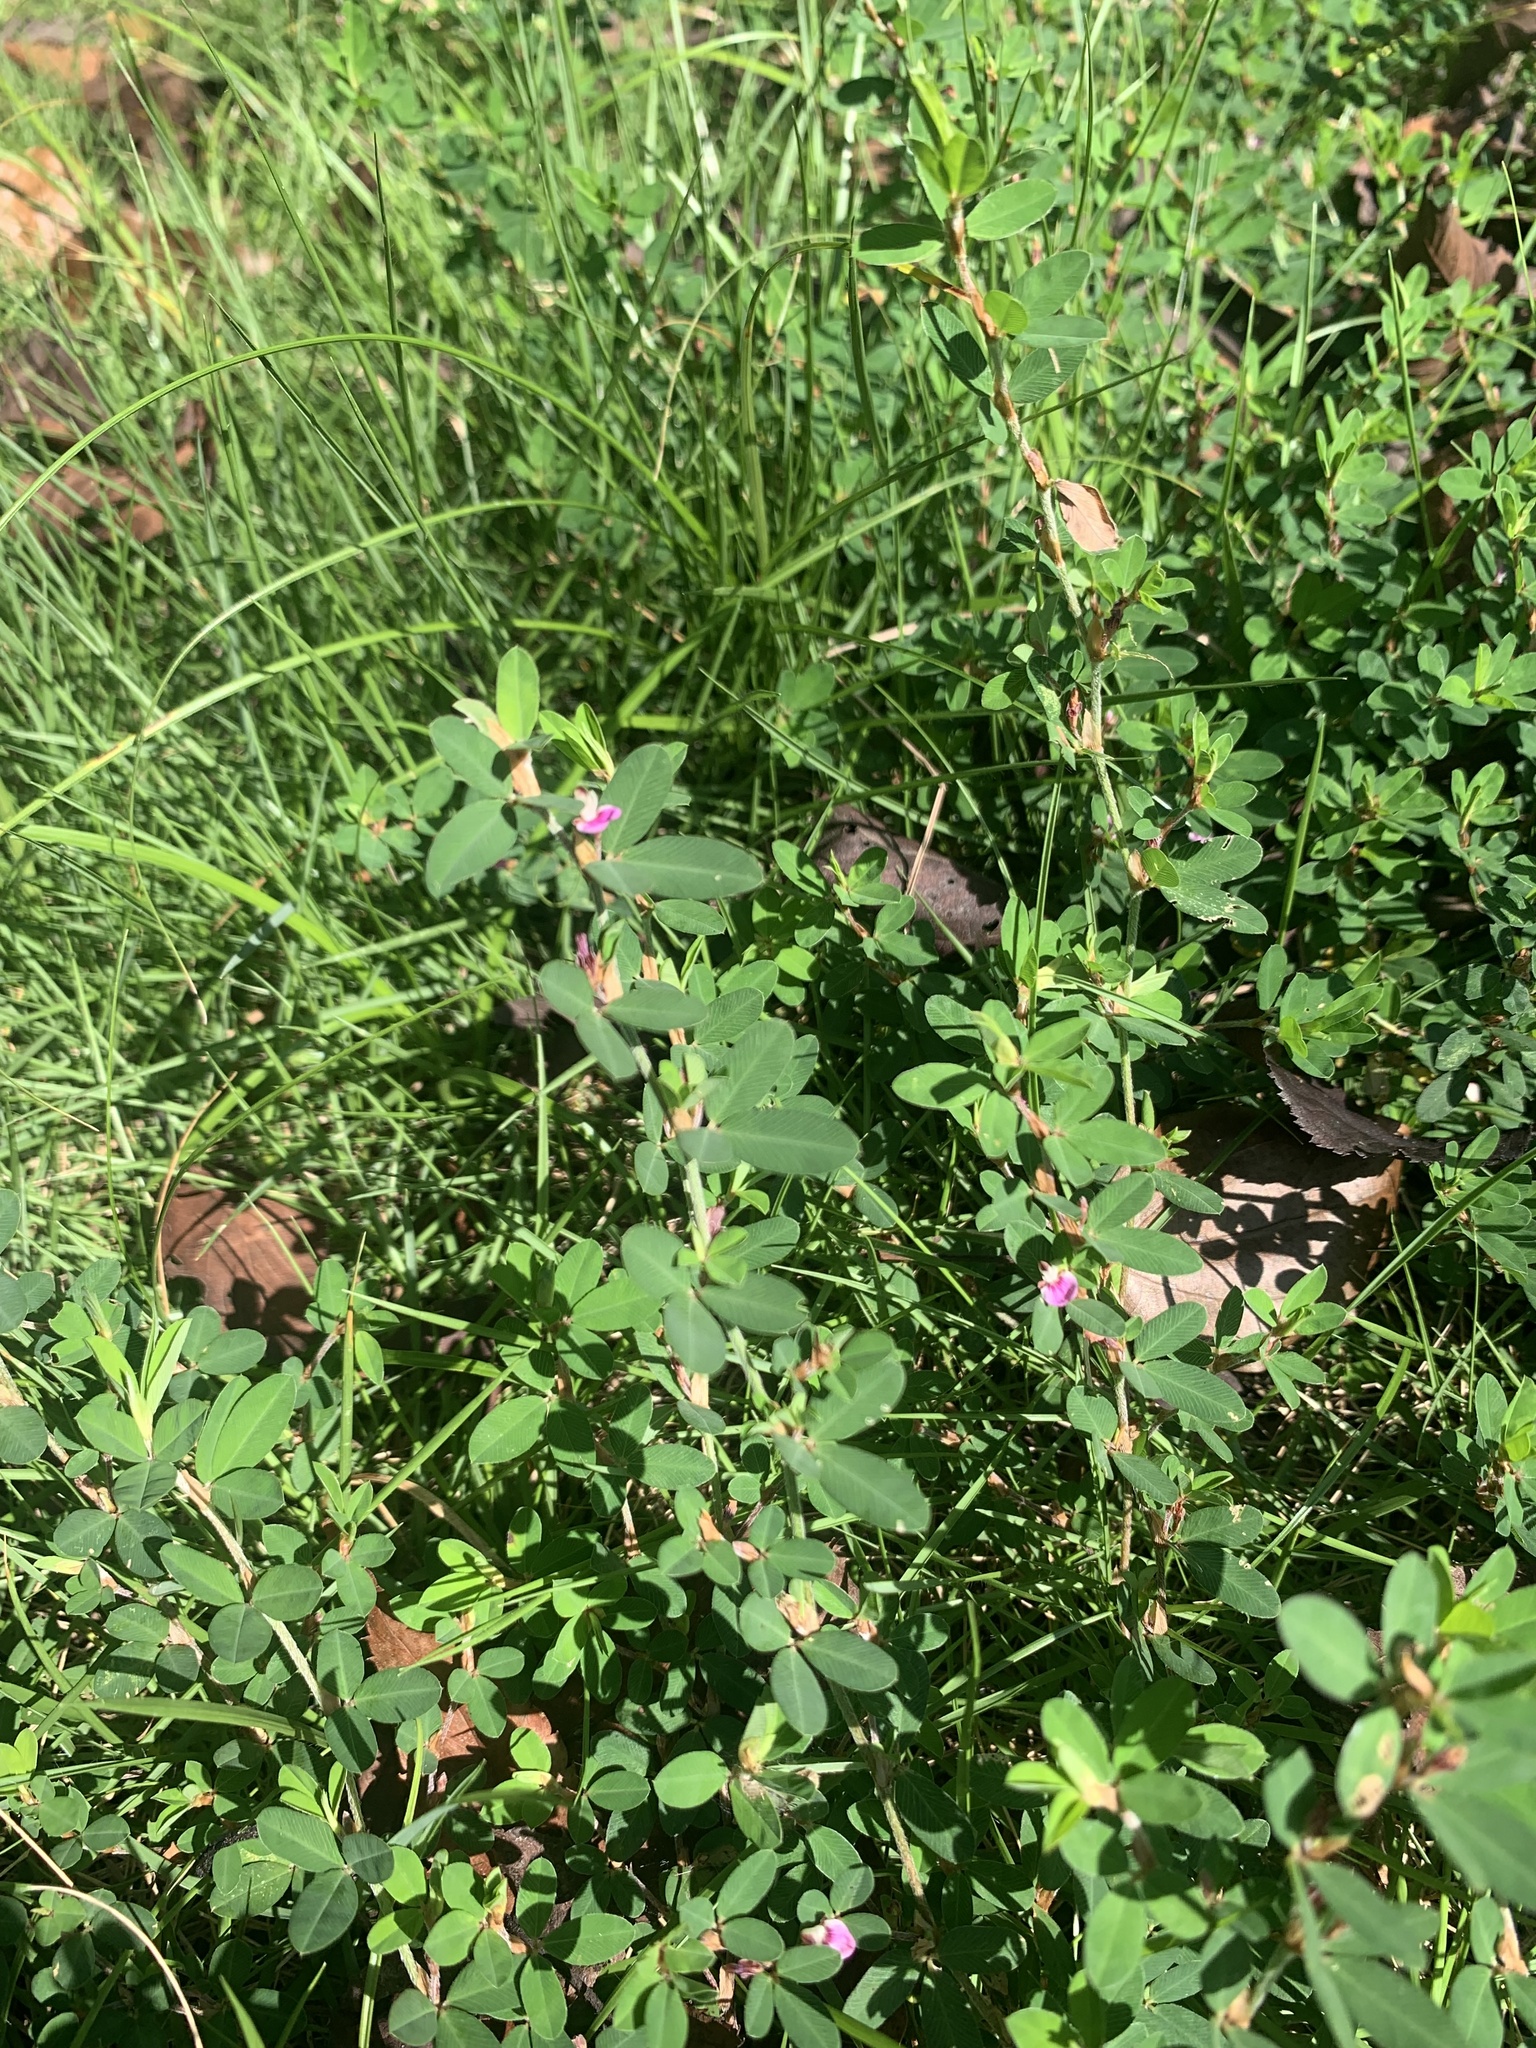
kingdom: Plantae
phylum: Tracheophyta
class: Magnoliopsida
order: Fabales
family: Fabaceae
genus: Kummerowia
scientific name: Kummerowia striata
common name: Japanese clover
